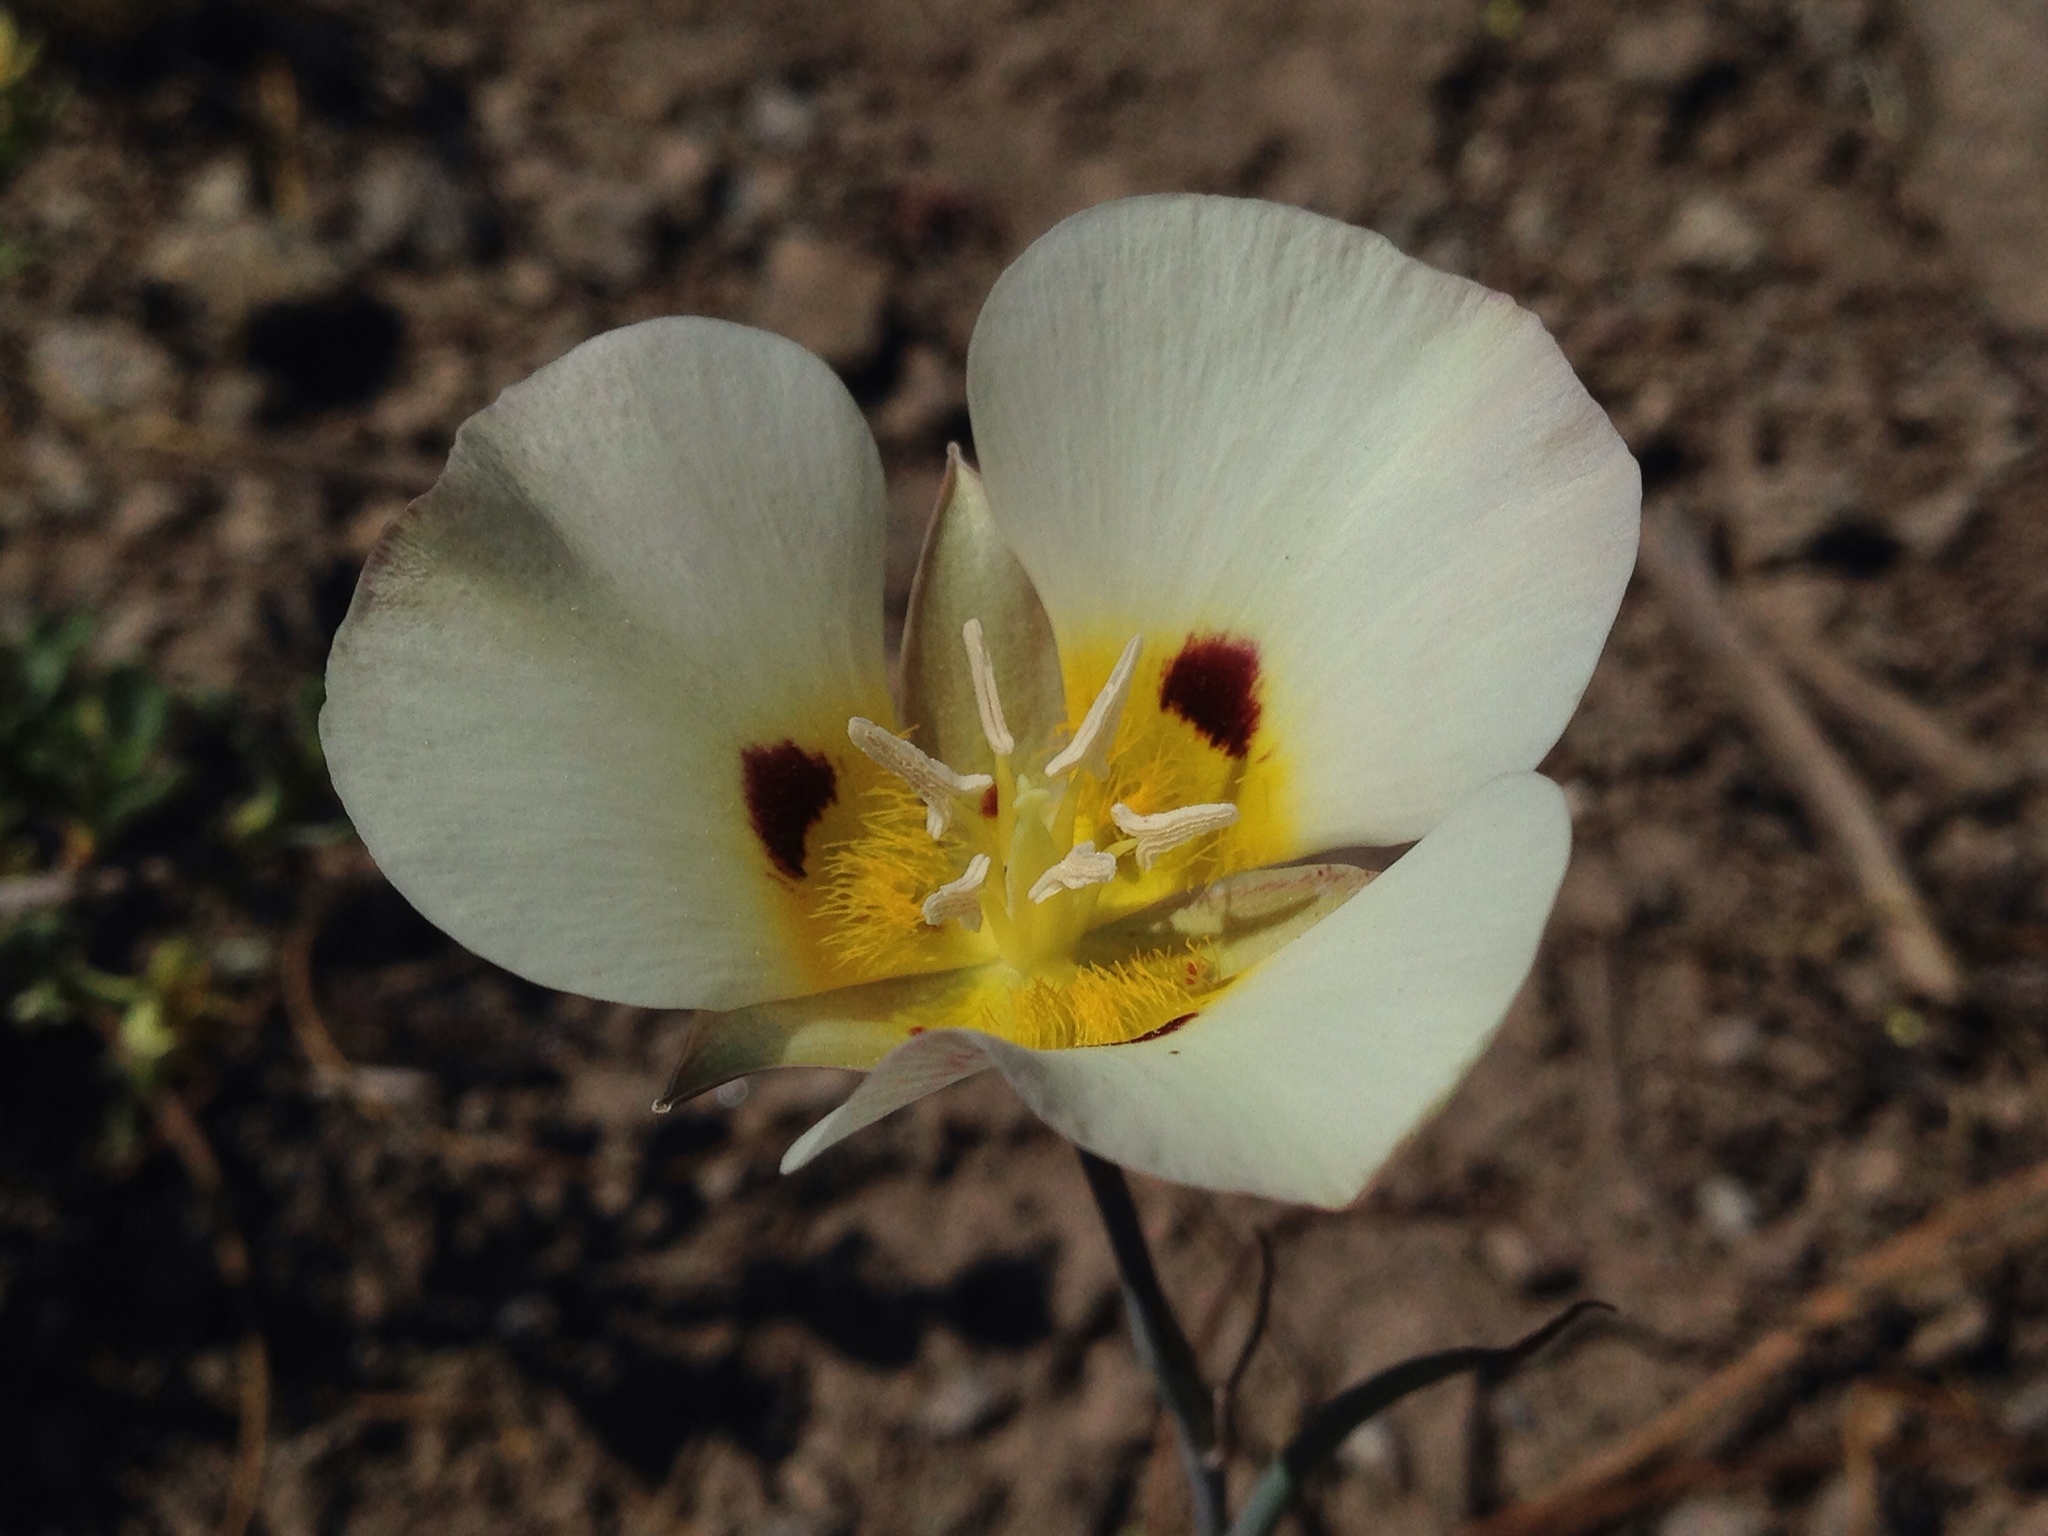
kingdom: Plantae
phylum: Tracheophyta
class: Liliopsida
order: Liliales
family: Liliaceae
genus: Calochortus
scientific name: Calochortus leichtlinii
